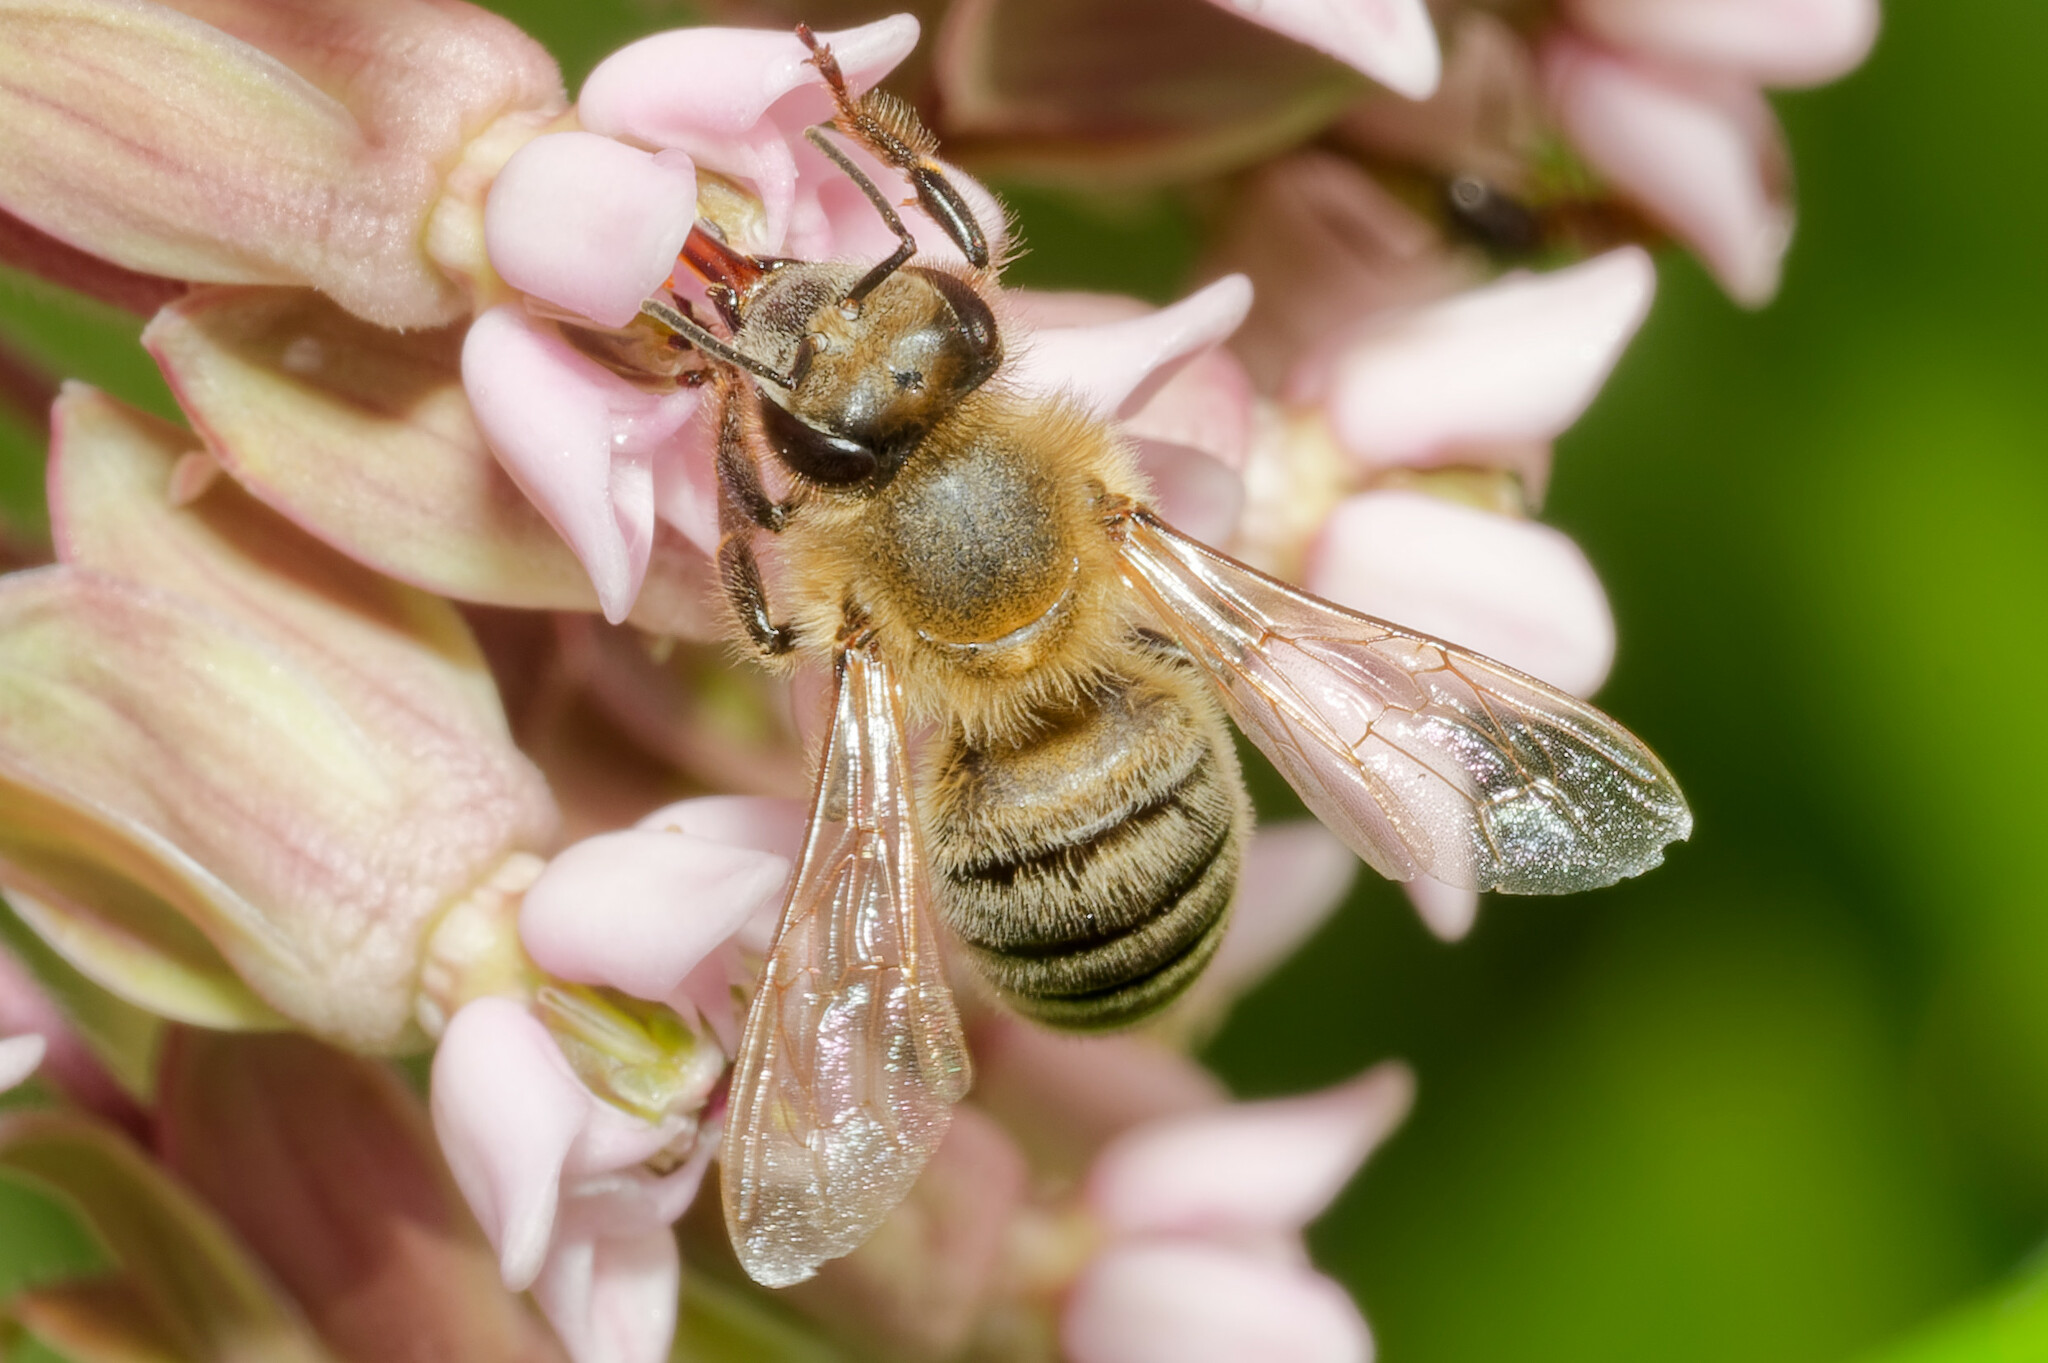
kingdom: Animalia
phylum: Arthropoda
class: Insecta
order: Hymenoptera
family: Apidae
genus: Apis
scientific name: Apis mellifera
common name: Honey bee
